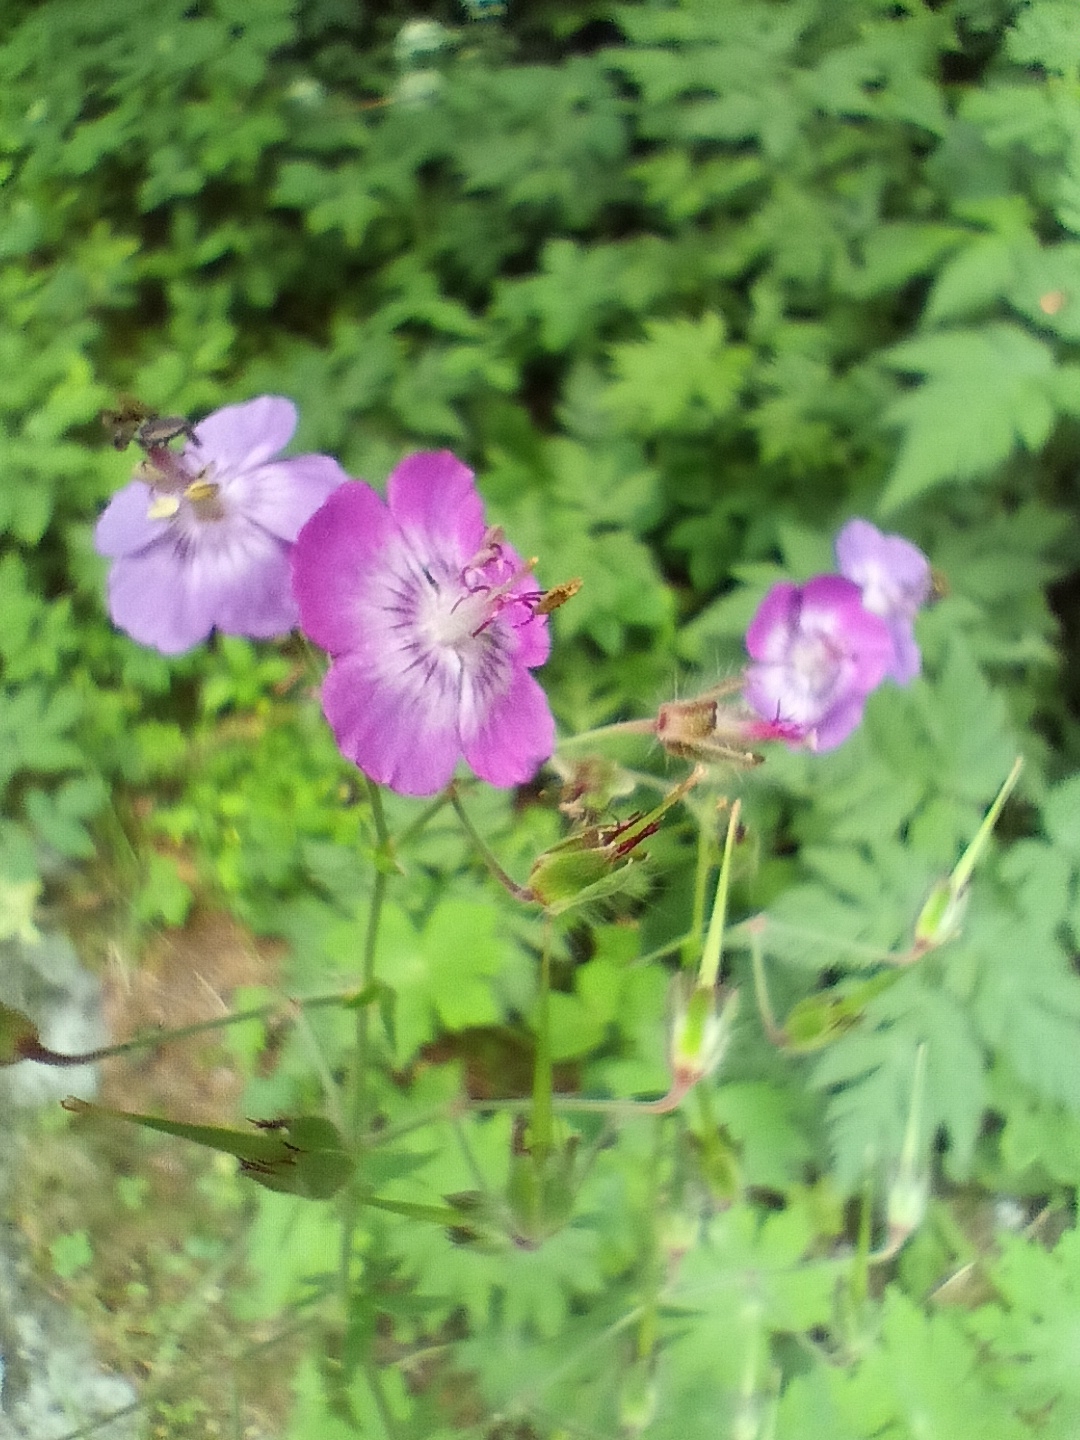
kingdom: Plantae
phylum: Tracheophyta
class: Magnoliopsida
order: Geraniales
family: Geraniaceae
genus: Geranium
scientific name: Geranium phaeum
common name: Dusky crane's-bill
